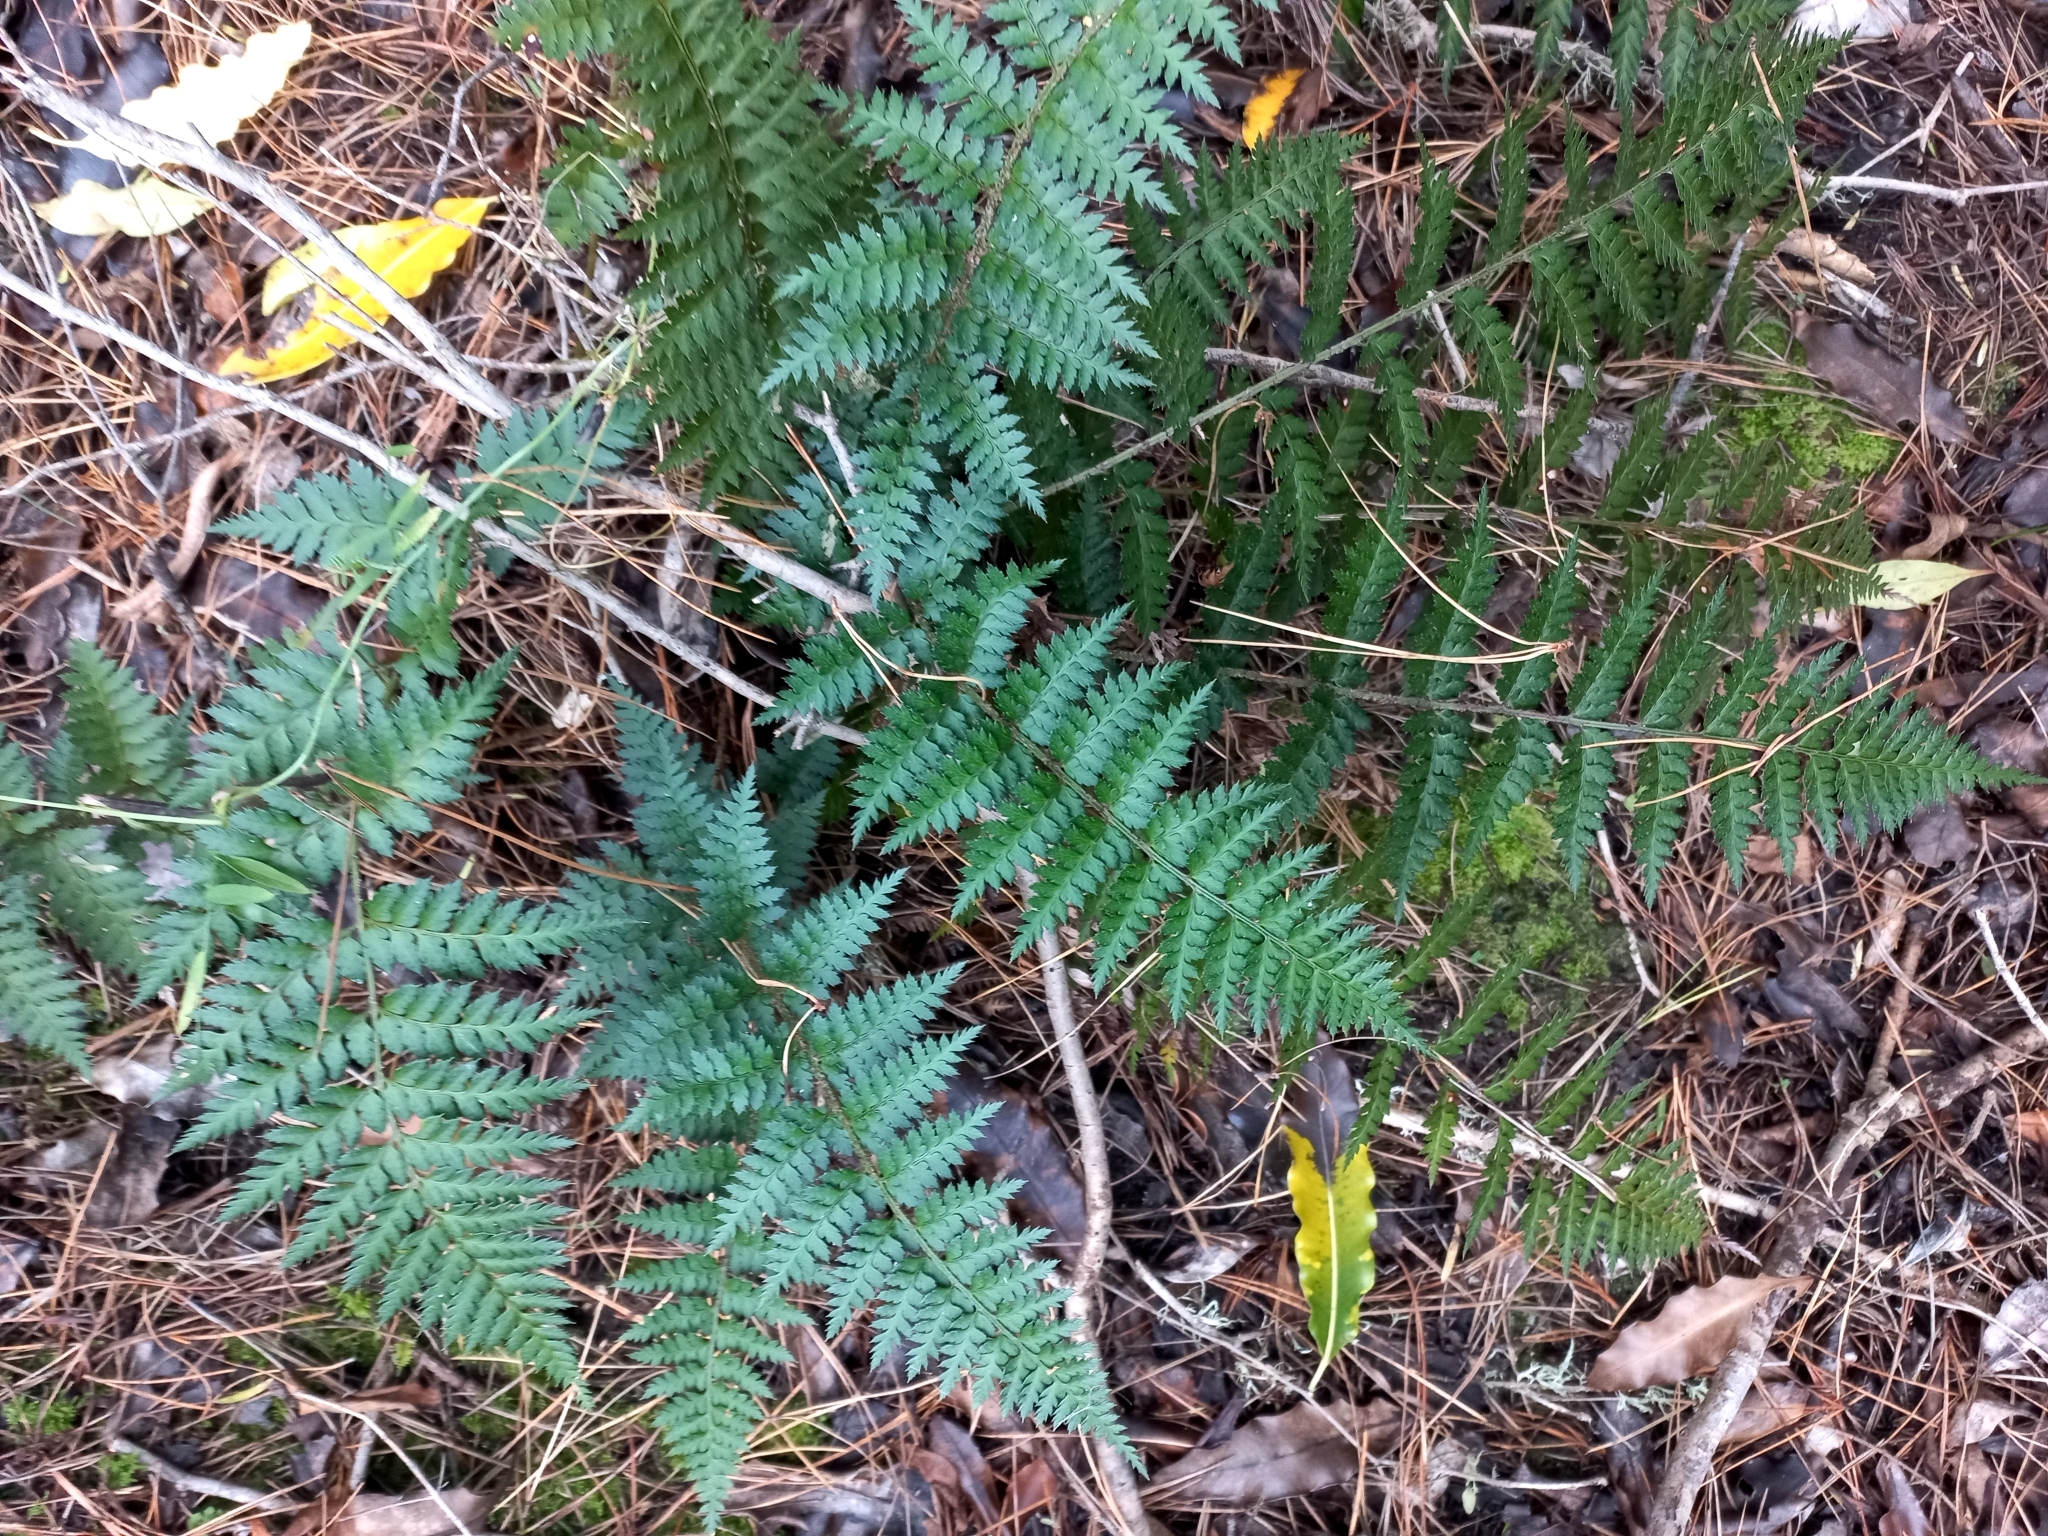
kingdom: Plantae
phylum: Tracheophyta
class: Polypodiopsida
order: Polypodiales
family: Dryopteridaceae
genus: Polystichum
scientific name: Polystichum oculatum
